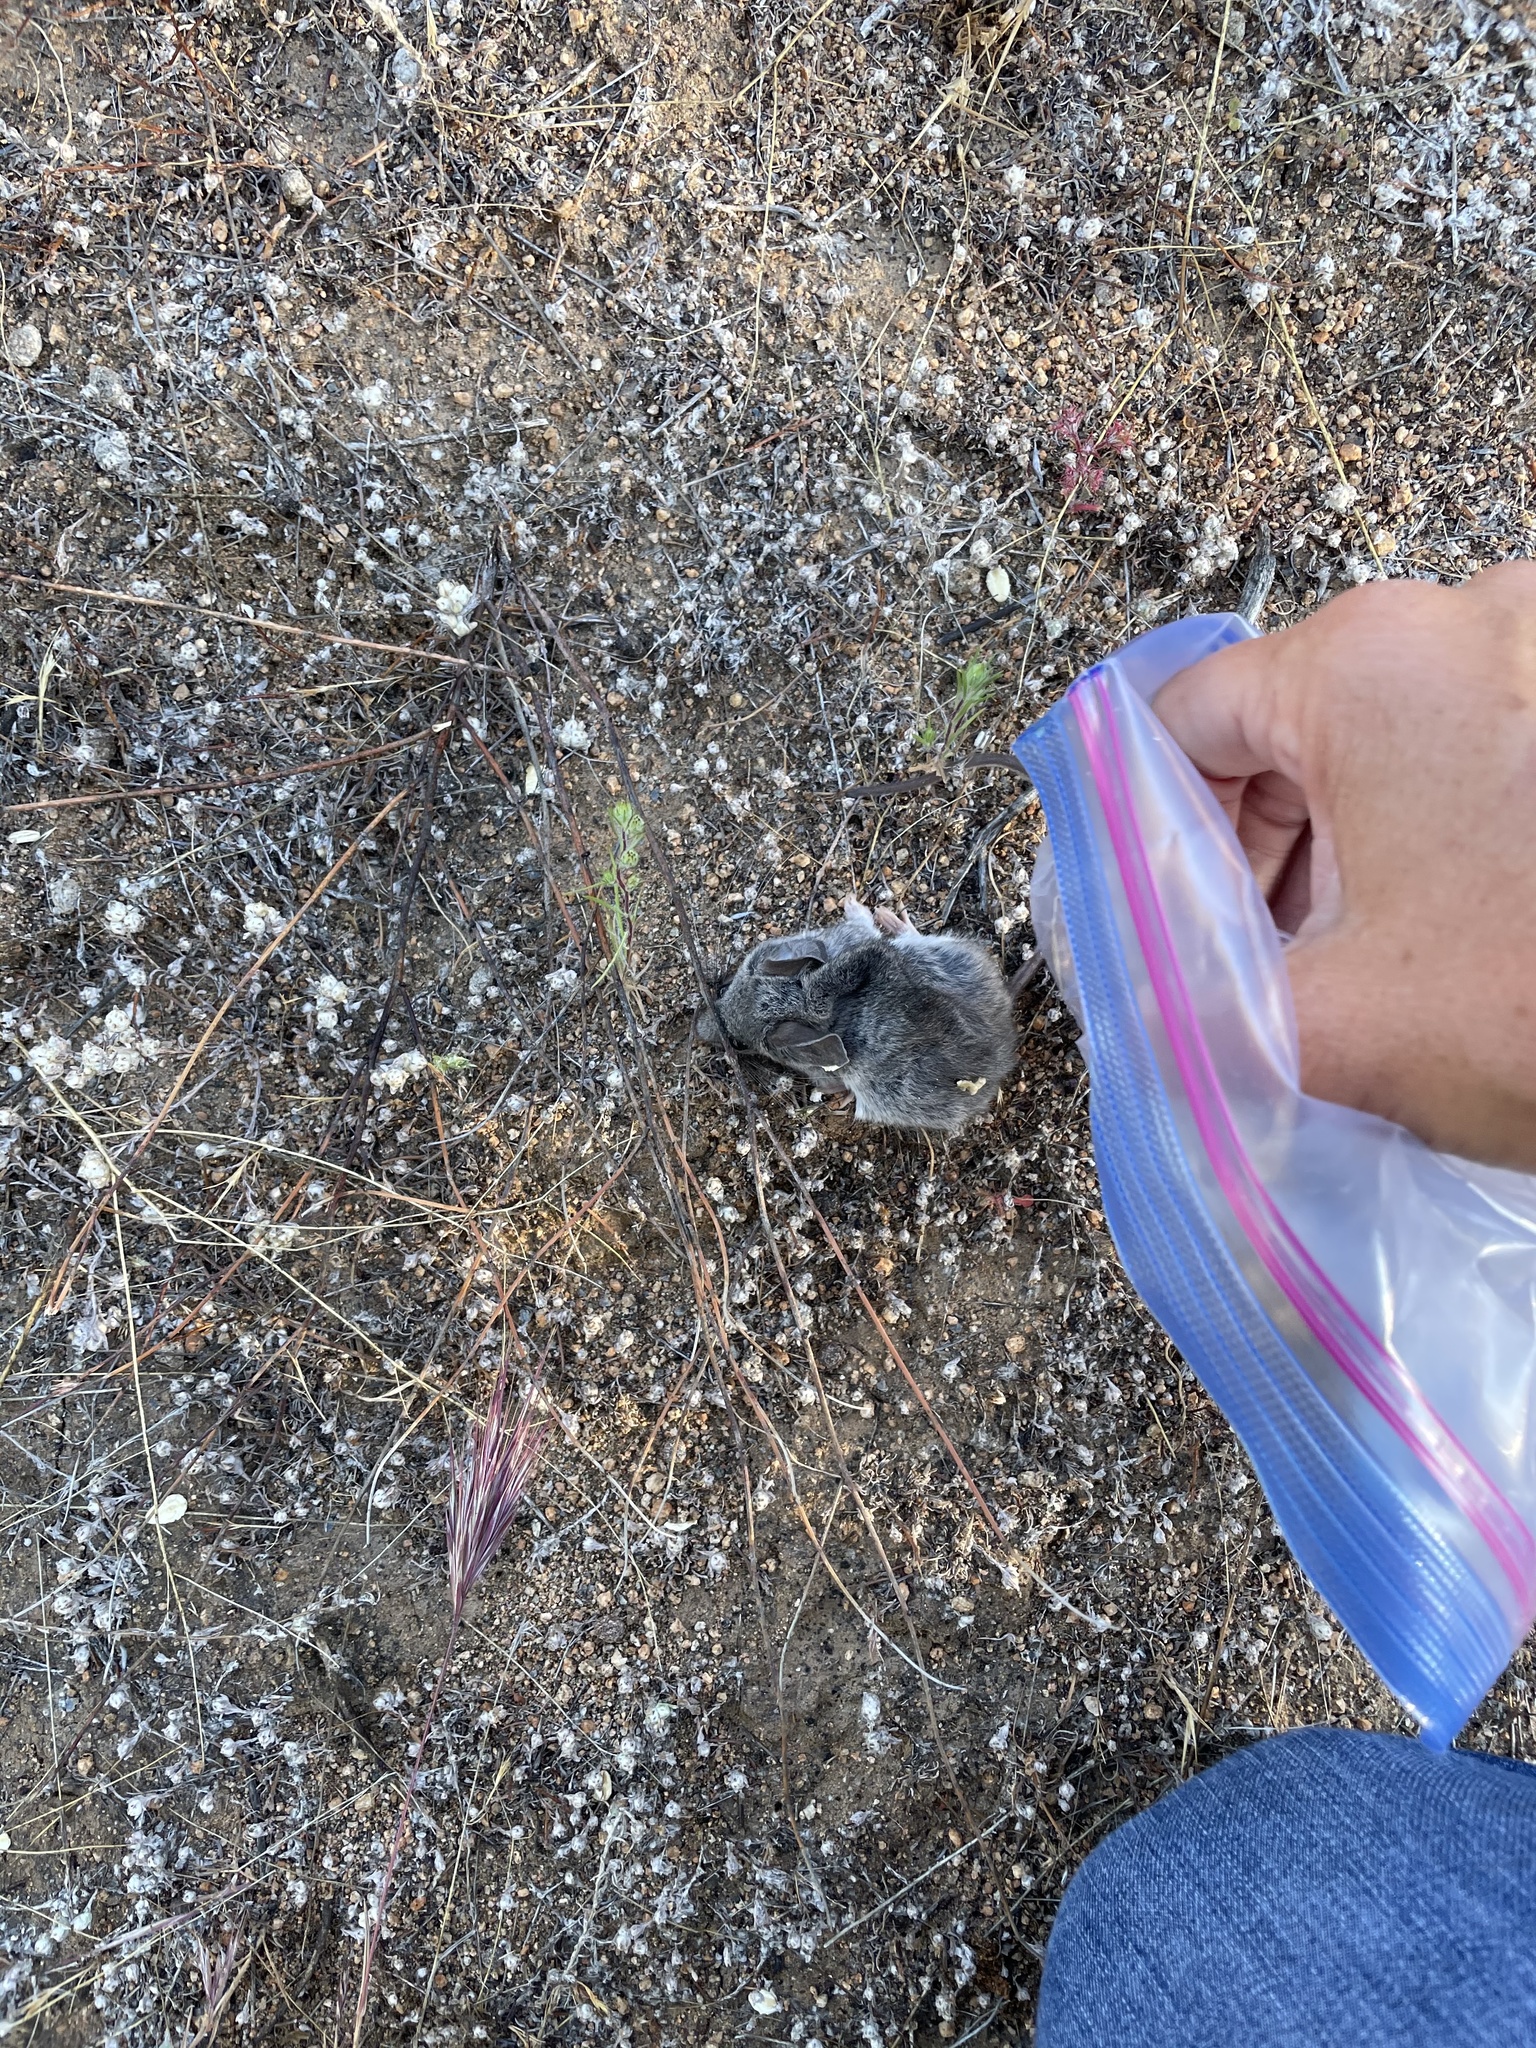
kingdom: Animalia
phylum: Chordata
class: Mammalia
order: Rodentia
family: Cricetidae
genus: Peromyscus
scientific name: Peromyscus eremicus
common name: Cactus deermouse
